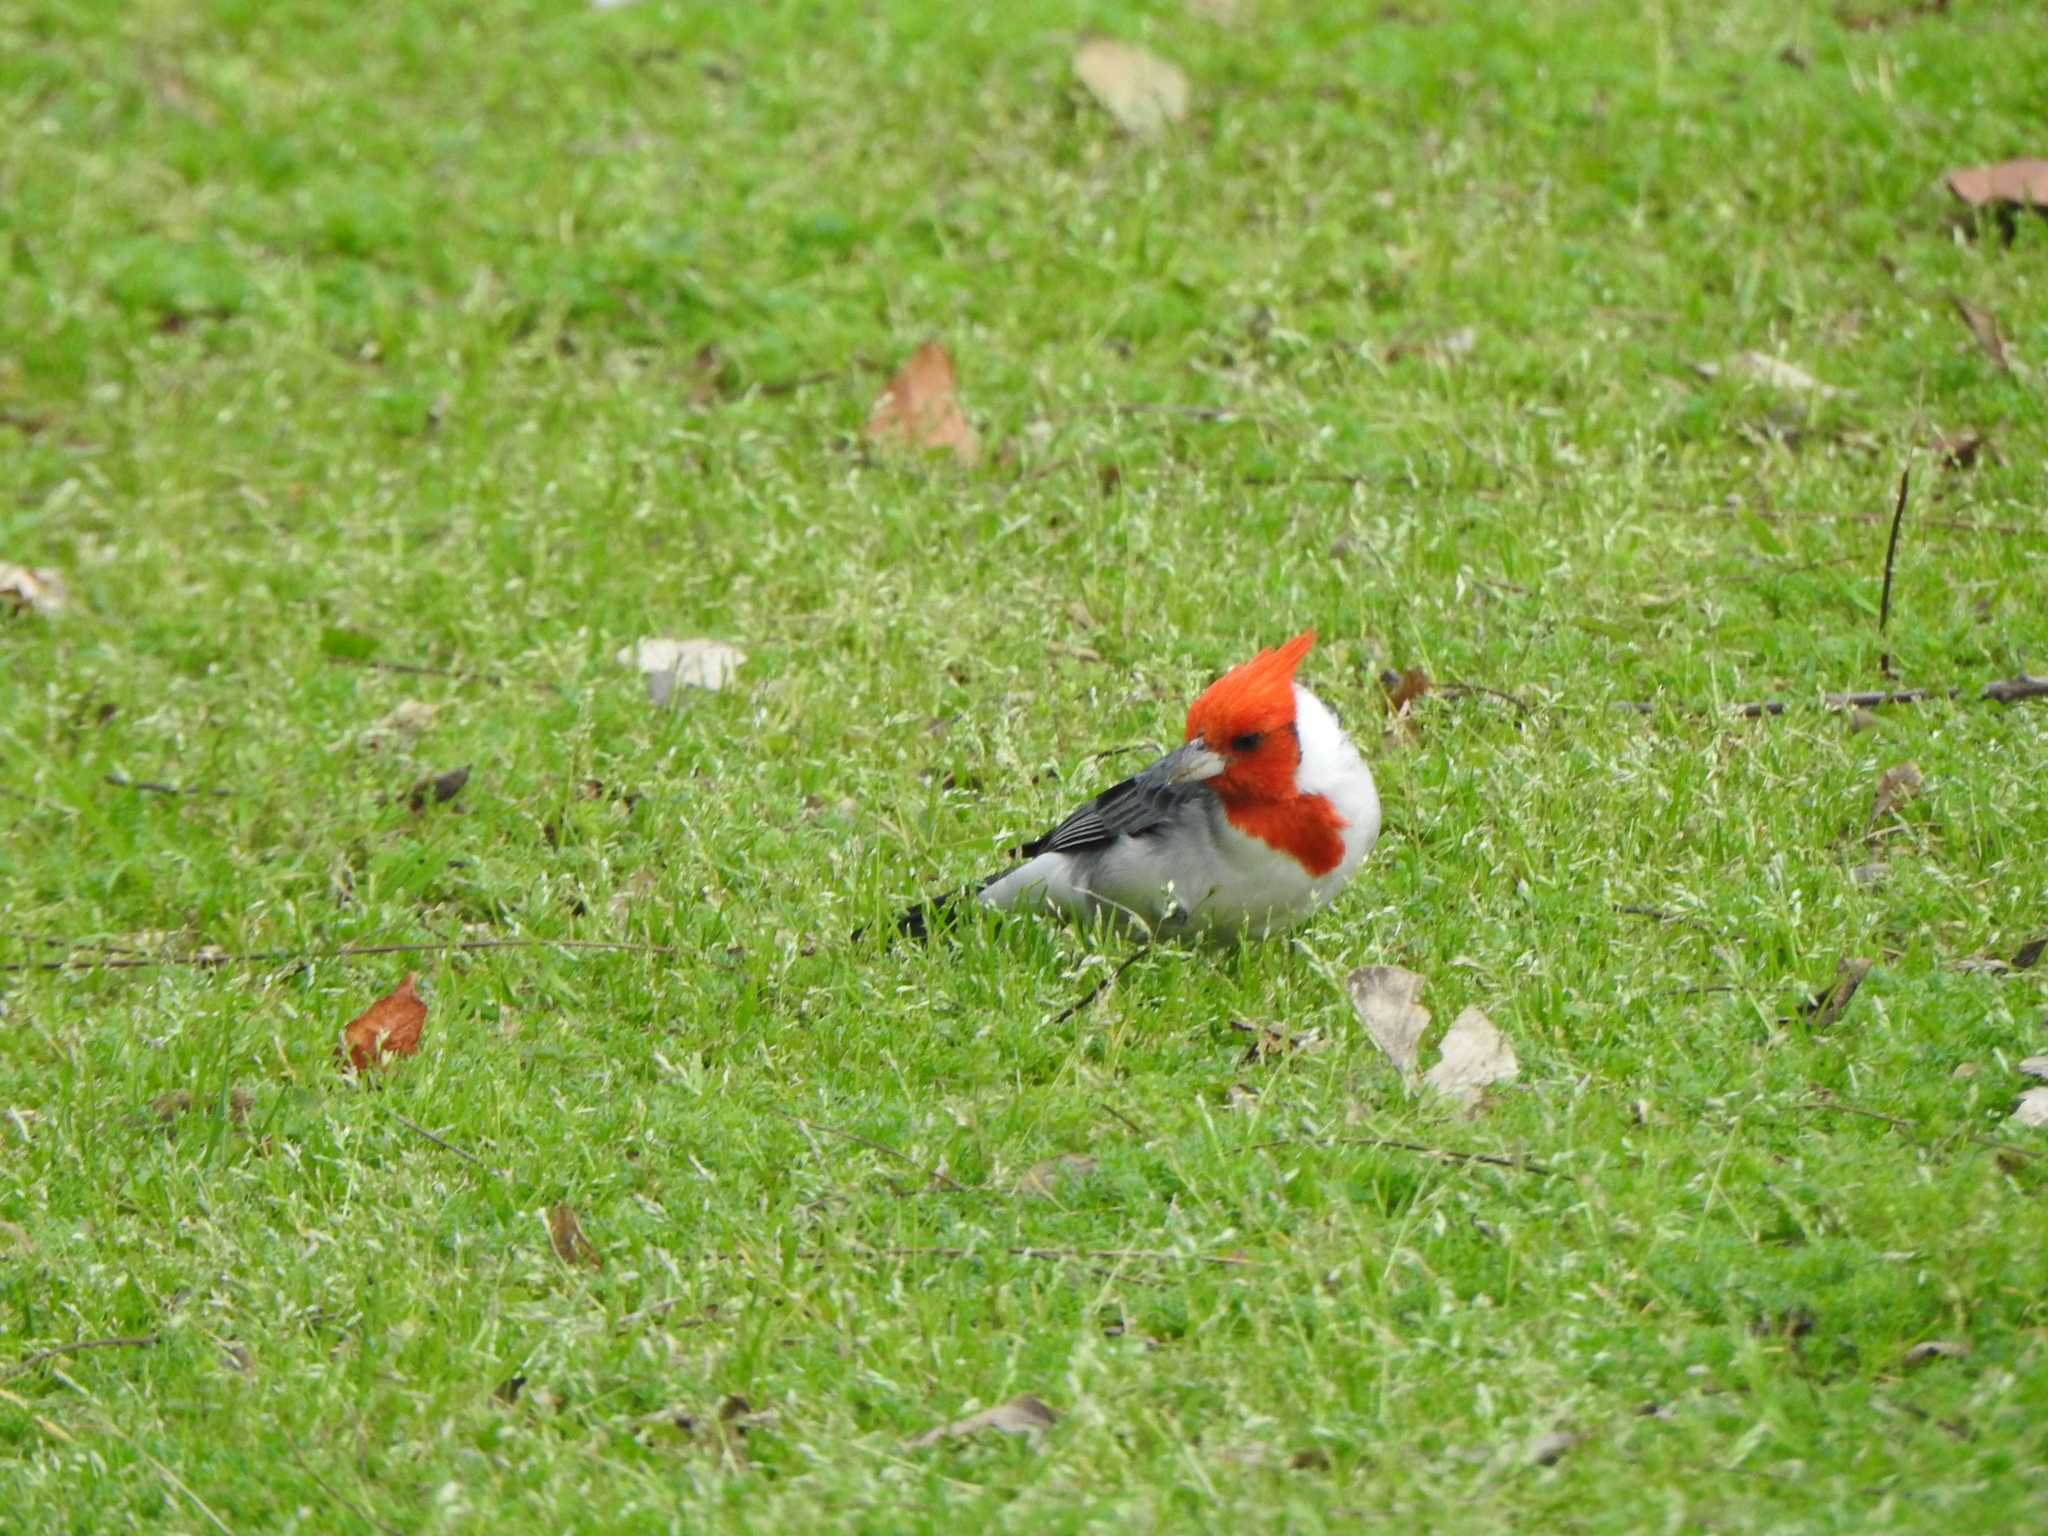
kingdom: Animalia
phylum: Chordata
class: Aves
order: Passeriformes
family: Thraupidae
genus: Paroaria
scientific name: Paroaria coronata
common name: Red-crested cardinal
